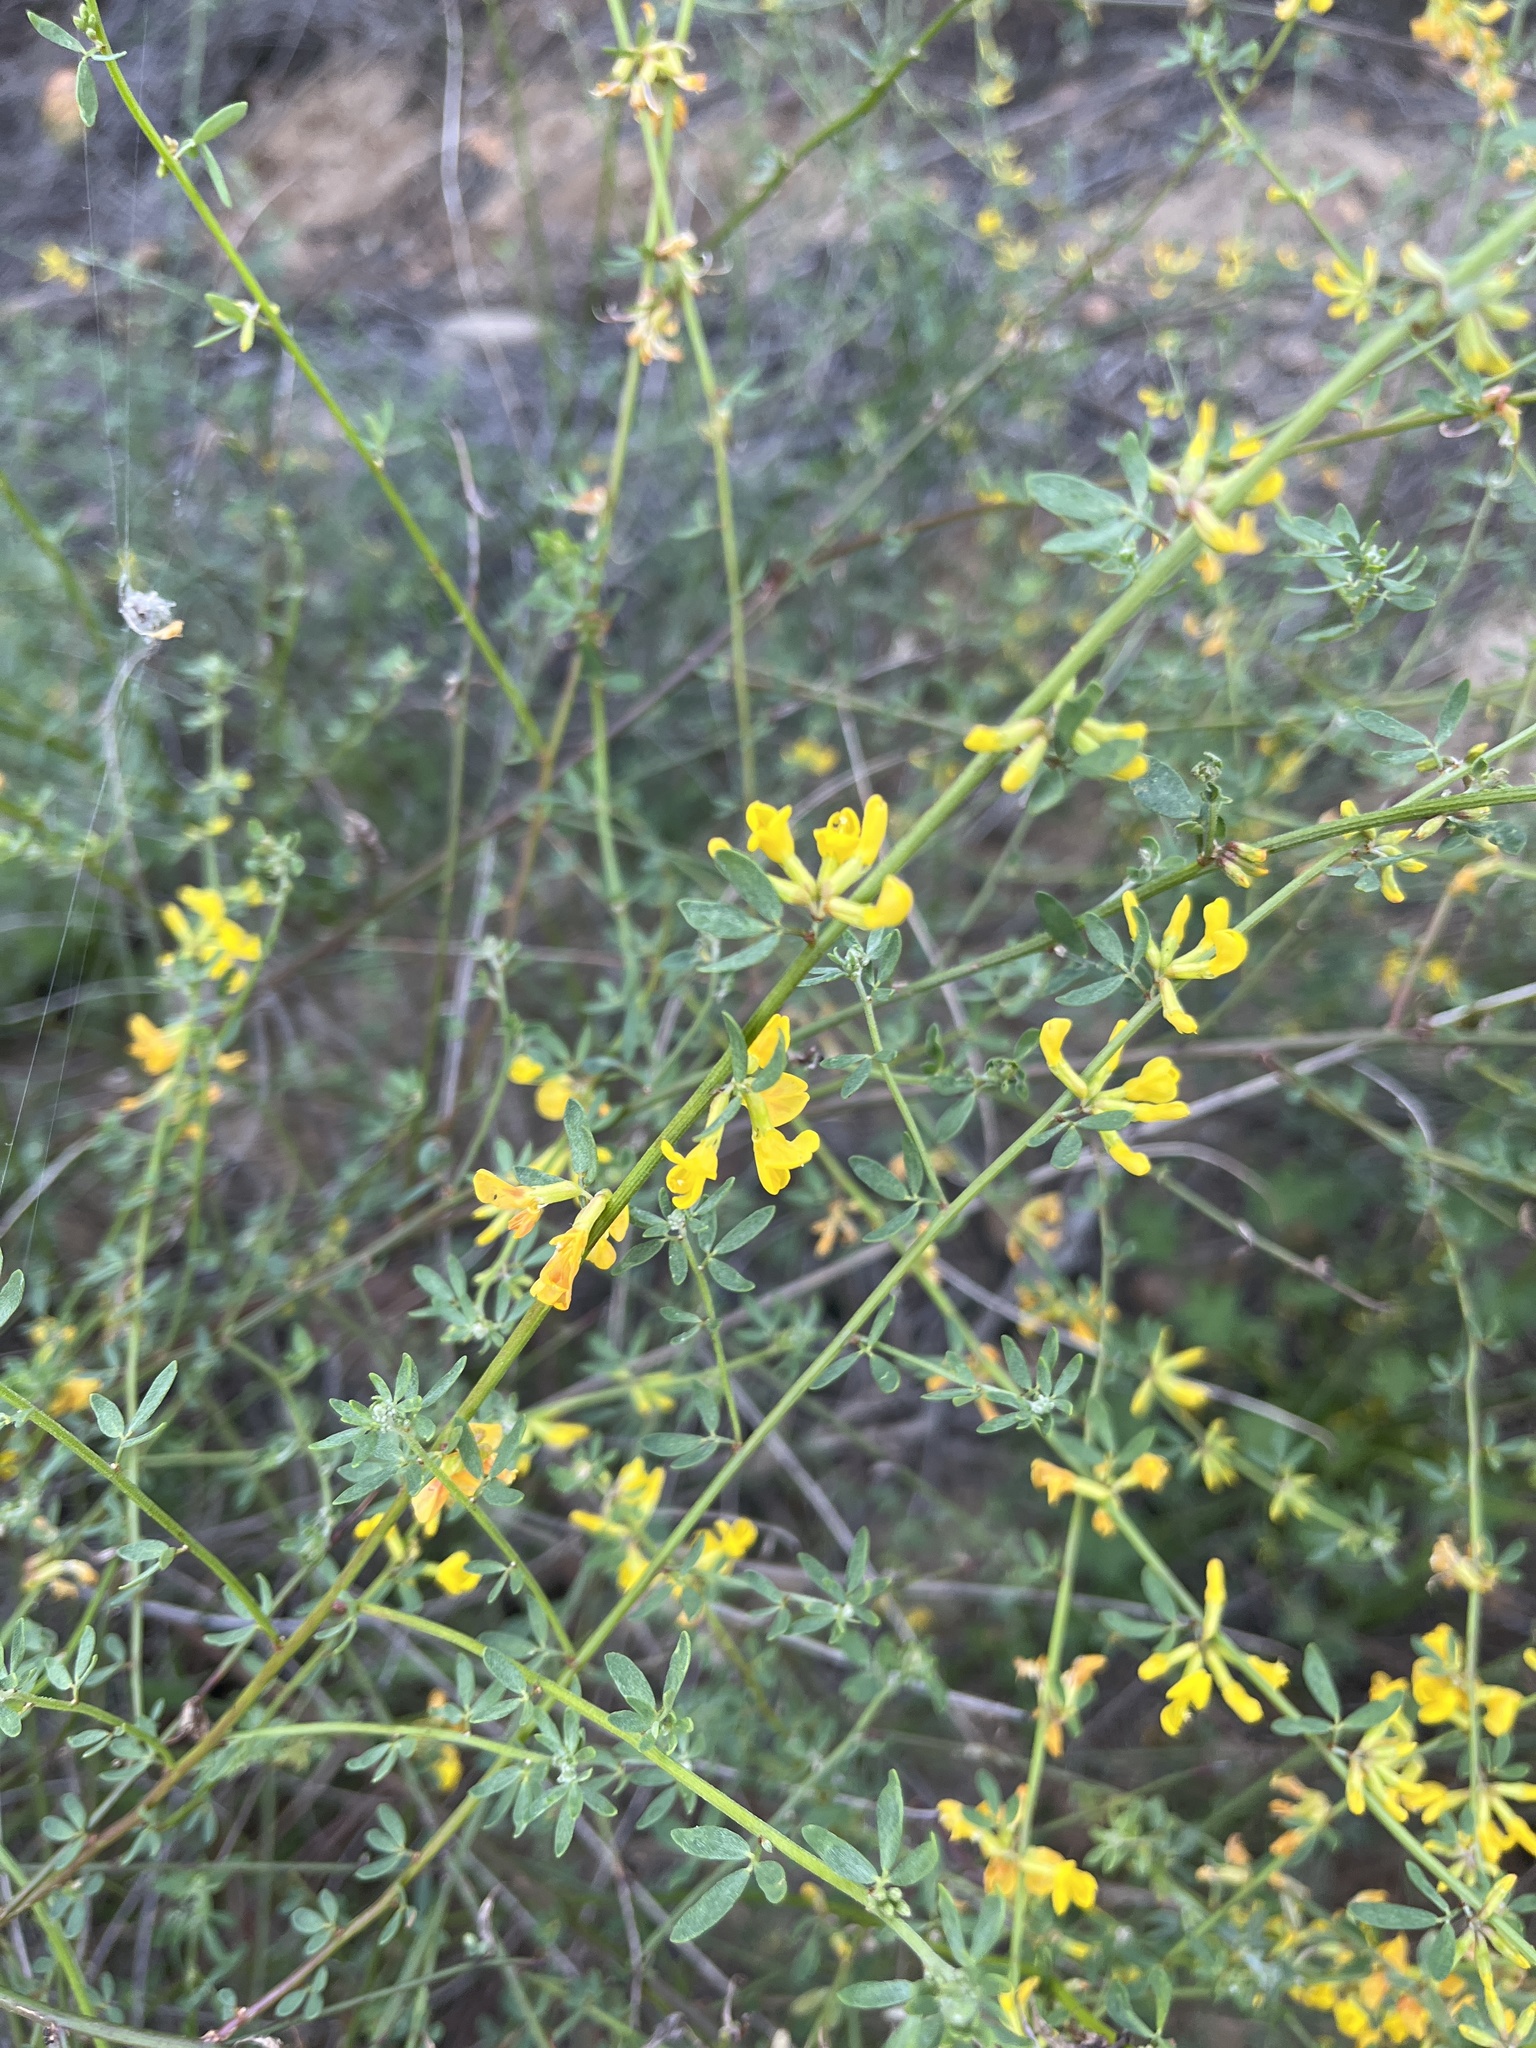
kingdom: Plantae
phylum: Tracheophyta
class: Magnoliopsida
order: Fabales
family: Fabaceae
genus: Acmispon
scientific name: Acmispon glaber
